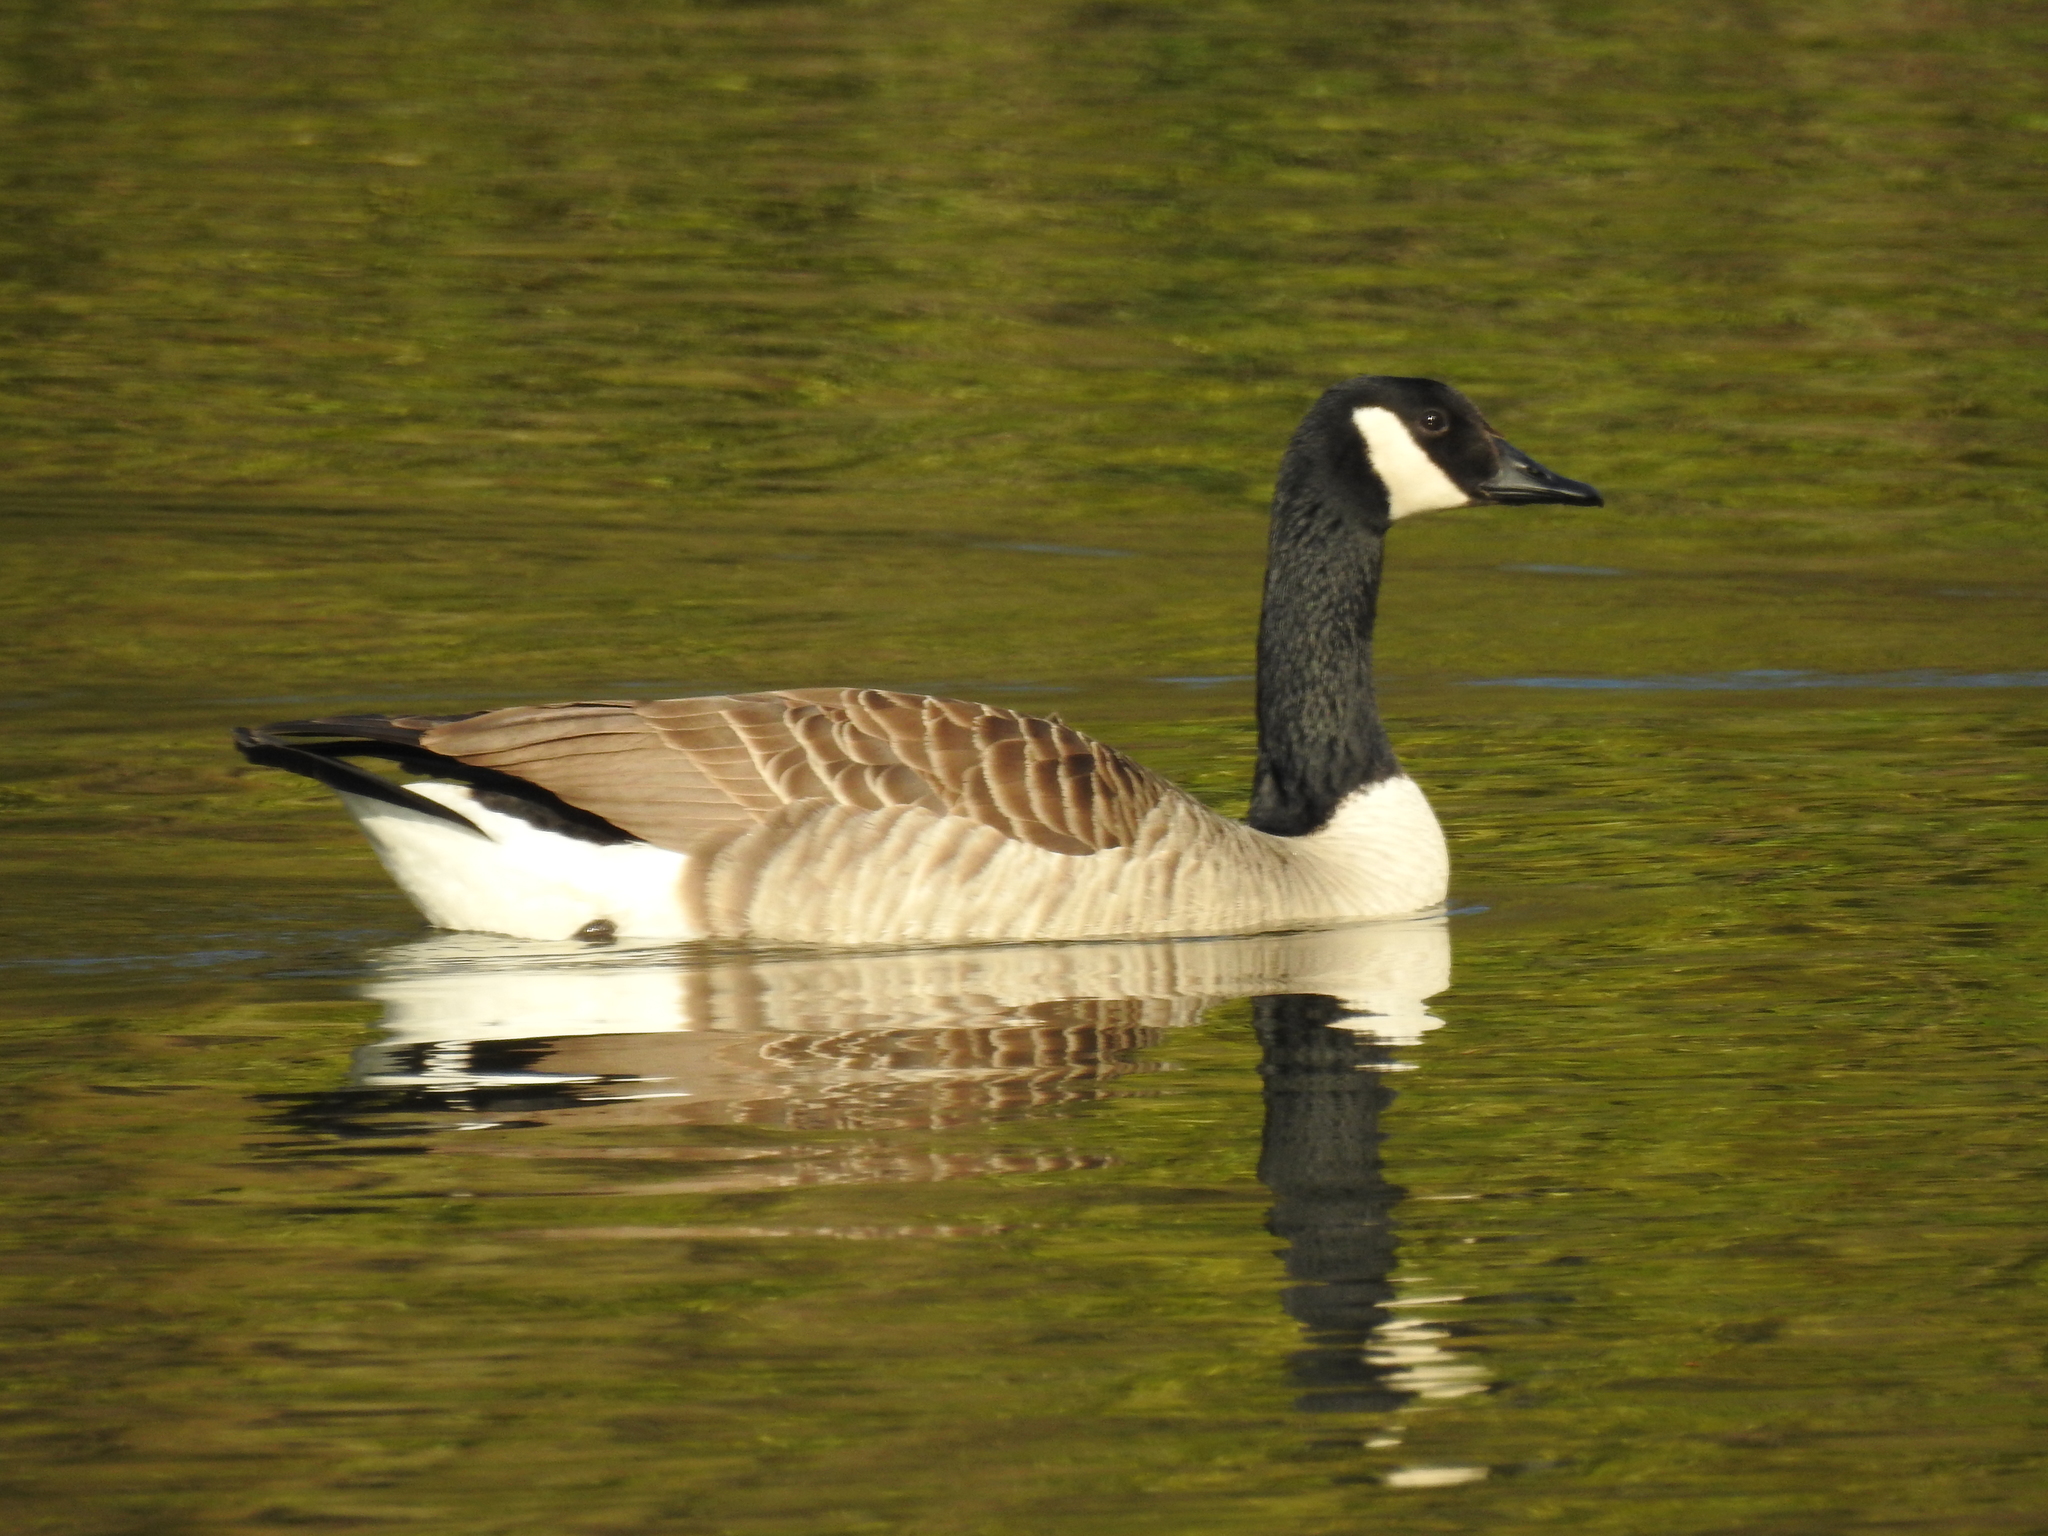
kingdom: Animalia
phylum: Chordata
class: Aves
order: Anseriformes
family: Anatidae
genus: Branta
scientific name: Branta canadensis
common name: Canada goose
